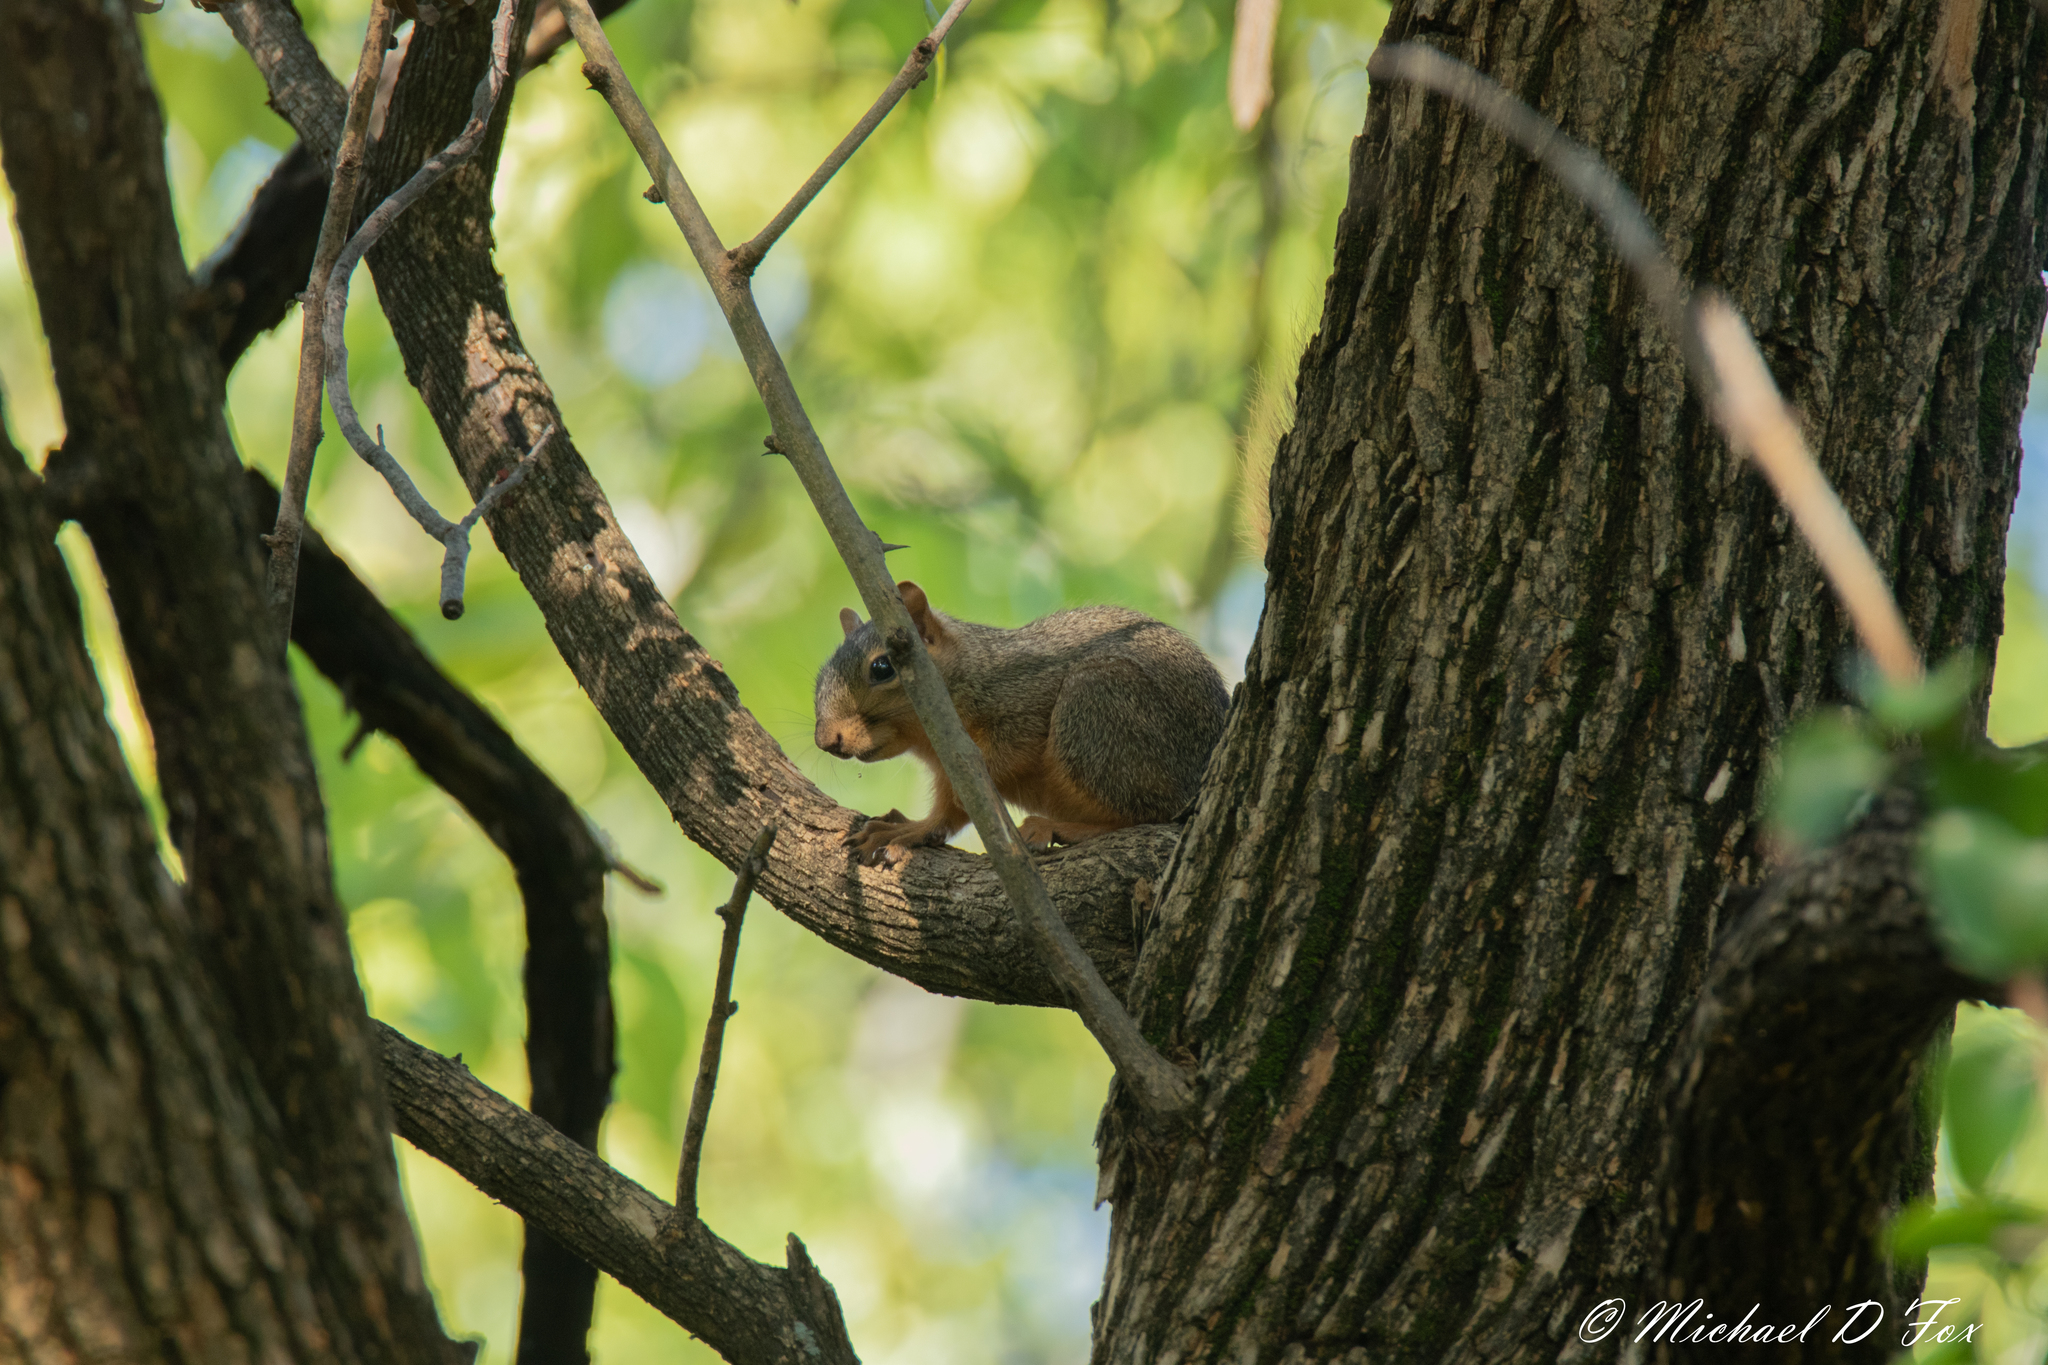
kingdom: Animalia
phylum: Chordata
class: Mammalia
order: Rodentia
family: Sciuridae
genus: Sciurus
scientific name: Sciurus niger
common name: Fox squirrel
